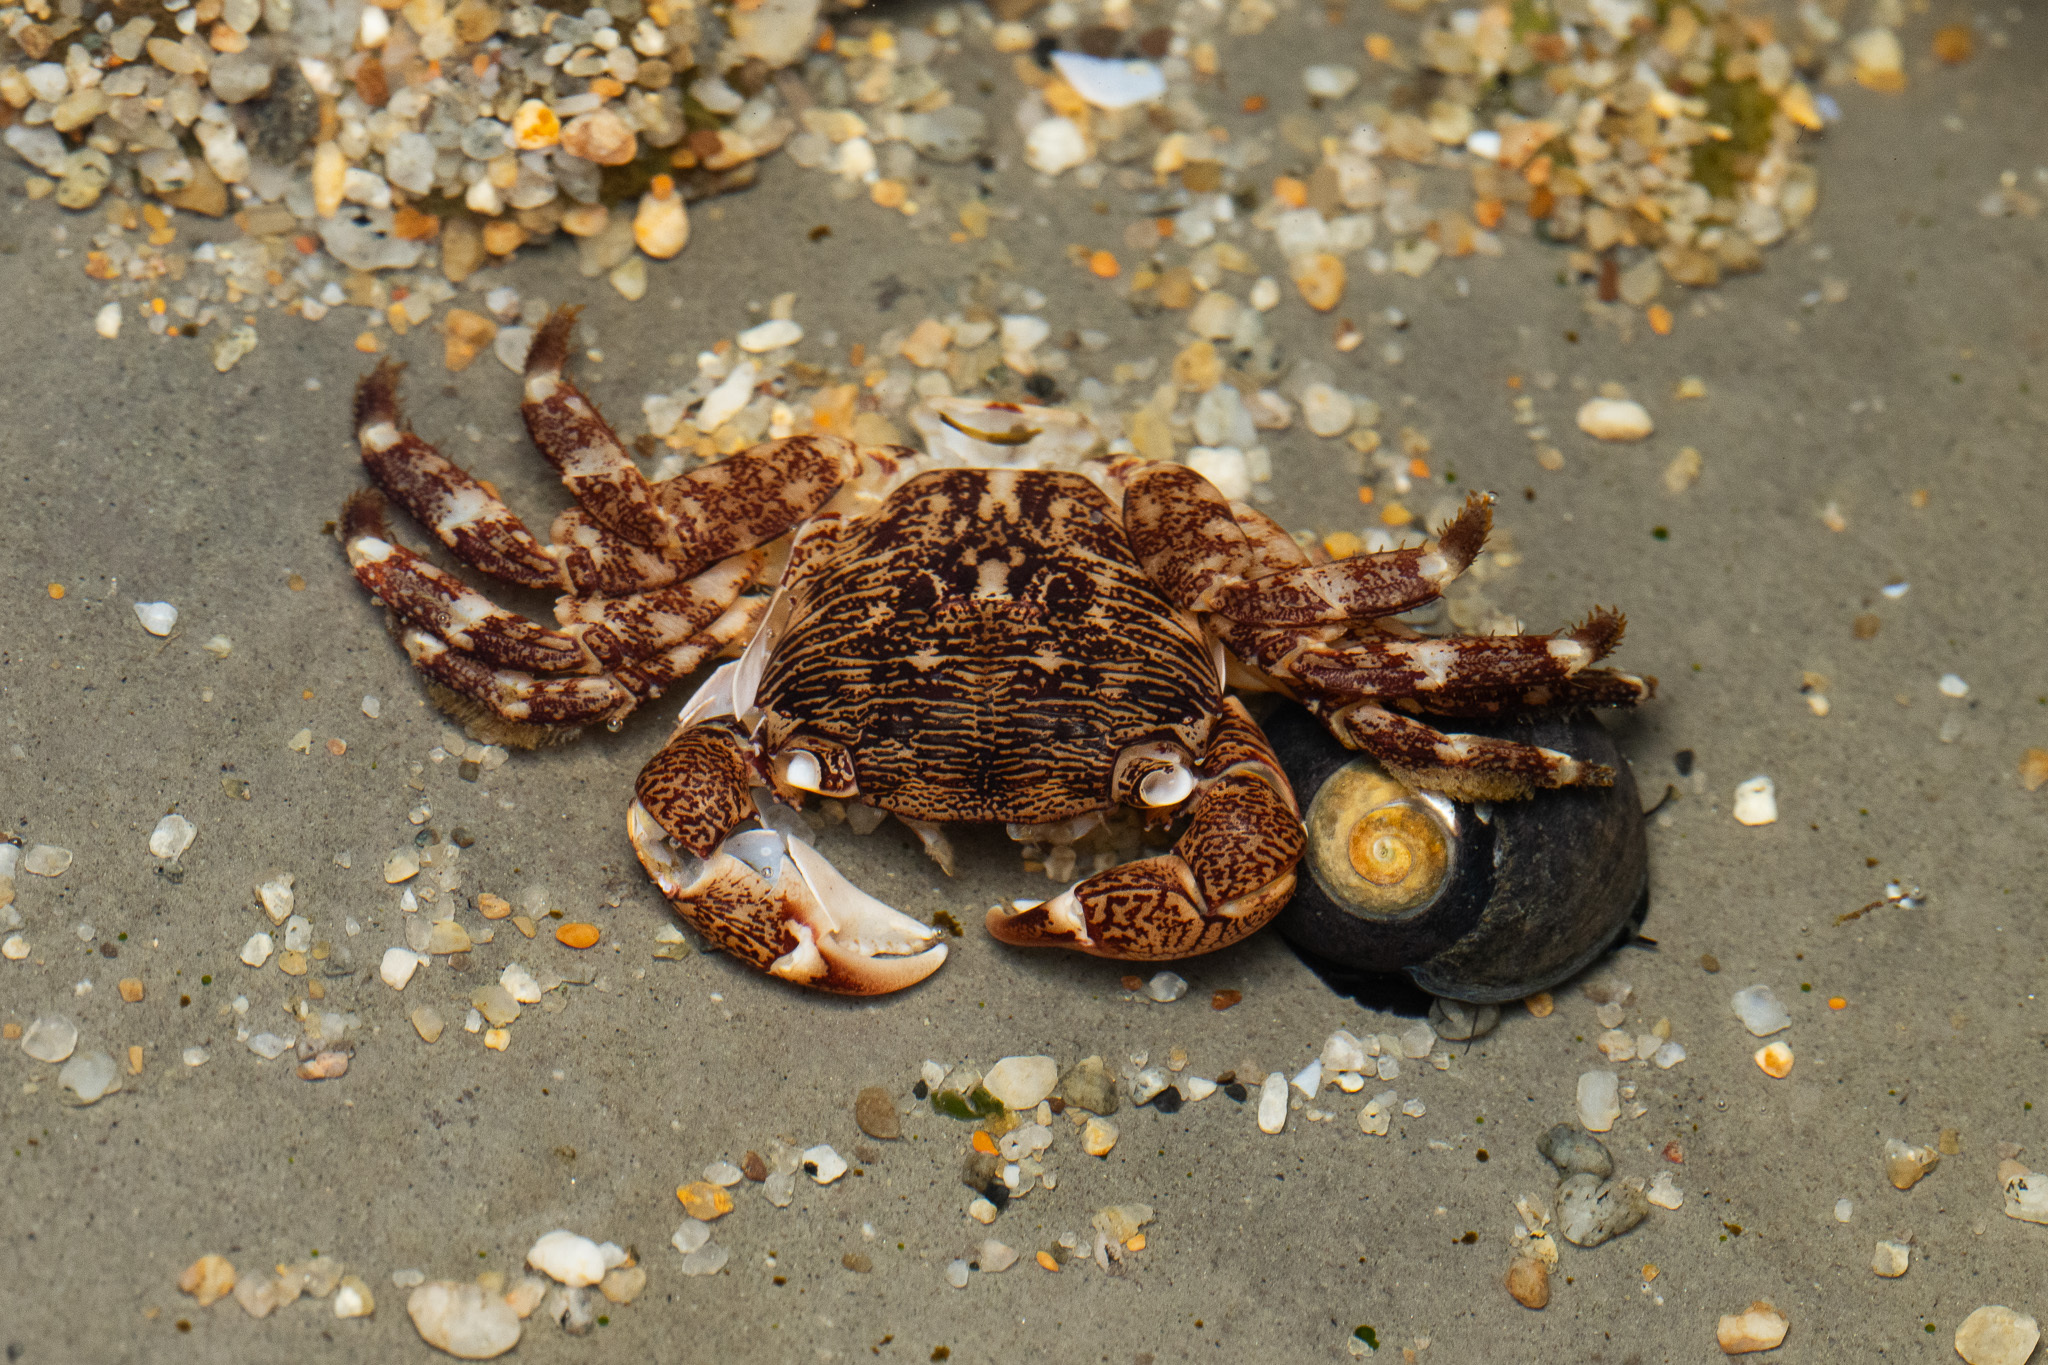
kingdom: Animalia
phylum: Arthropoda
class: Malacostraca
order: Decapoda
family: Grapsidae
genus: Pachygrapsus
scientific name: Pachygrapsus crassipes
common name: Striped shore crab
